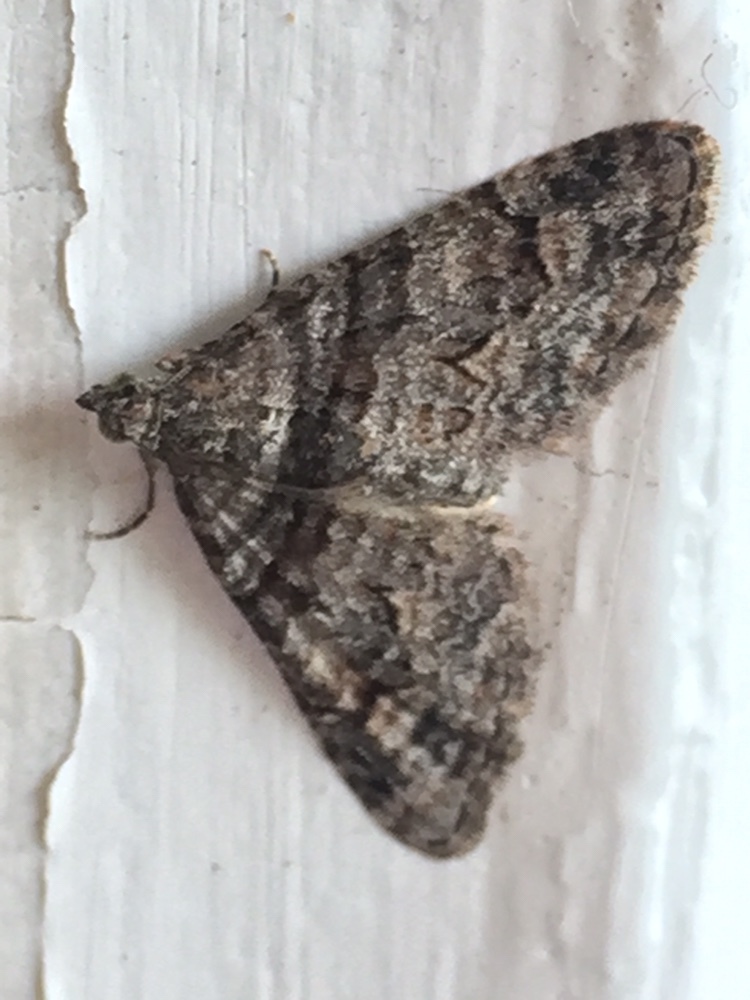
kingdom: Animalia
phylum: Arthropoda
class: Insecta
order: Lepidoptera
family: Geometridae
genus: Phrissogonus
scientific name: Phrissogonus laticostata
